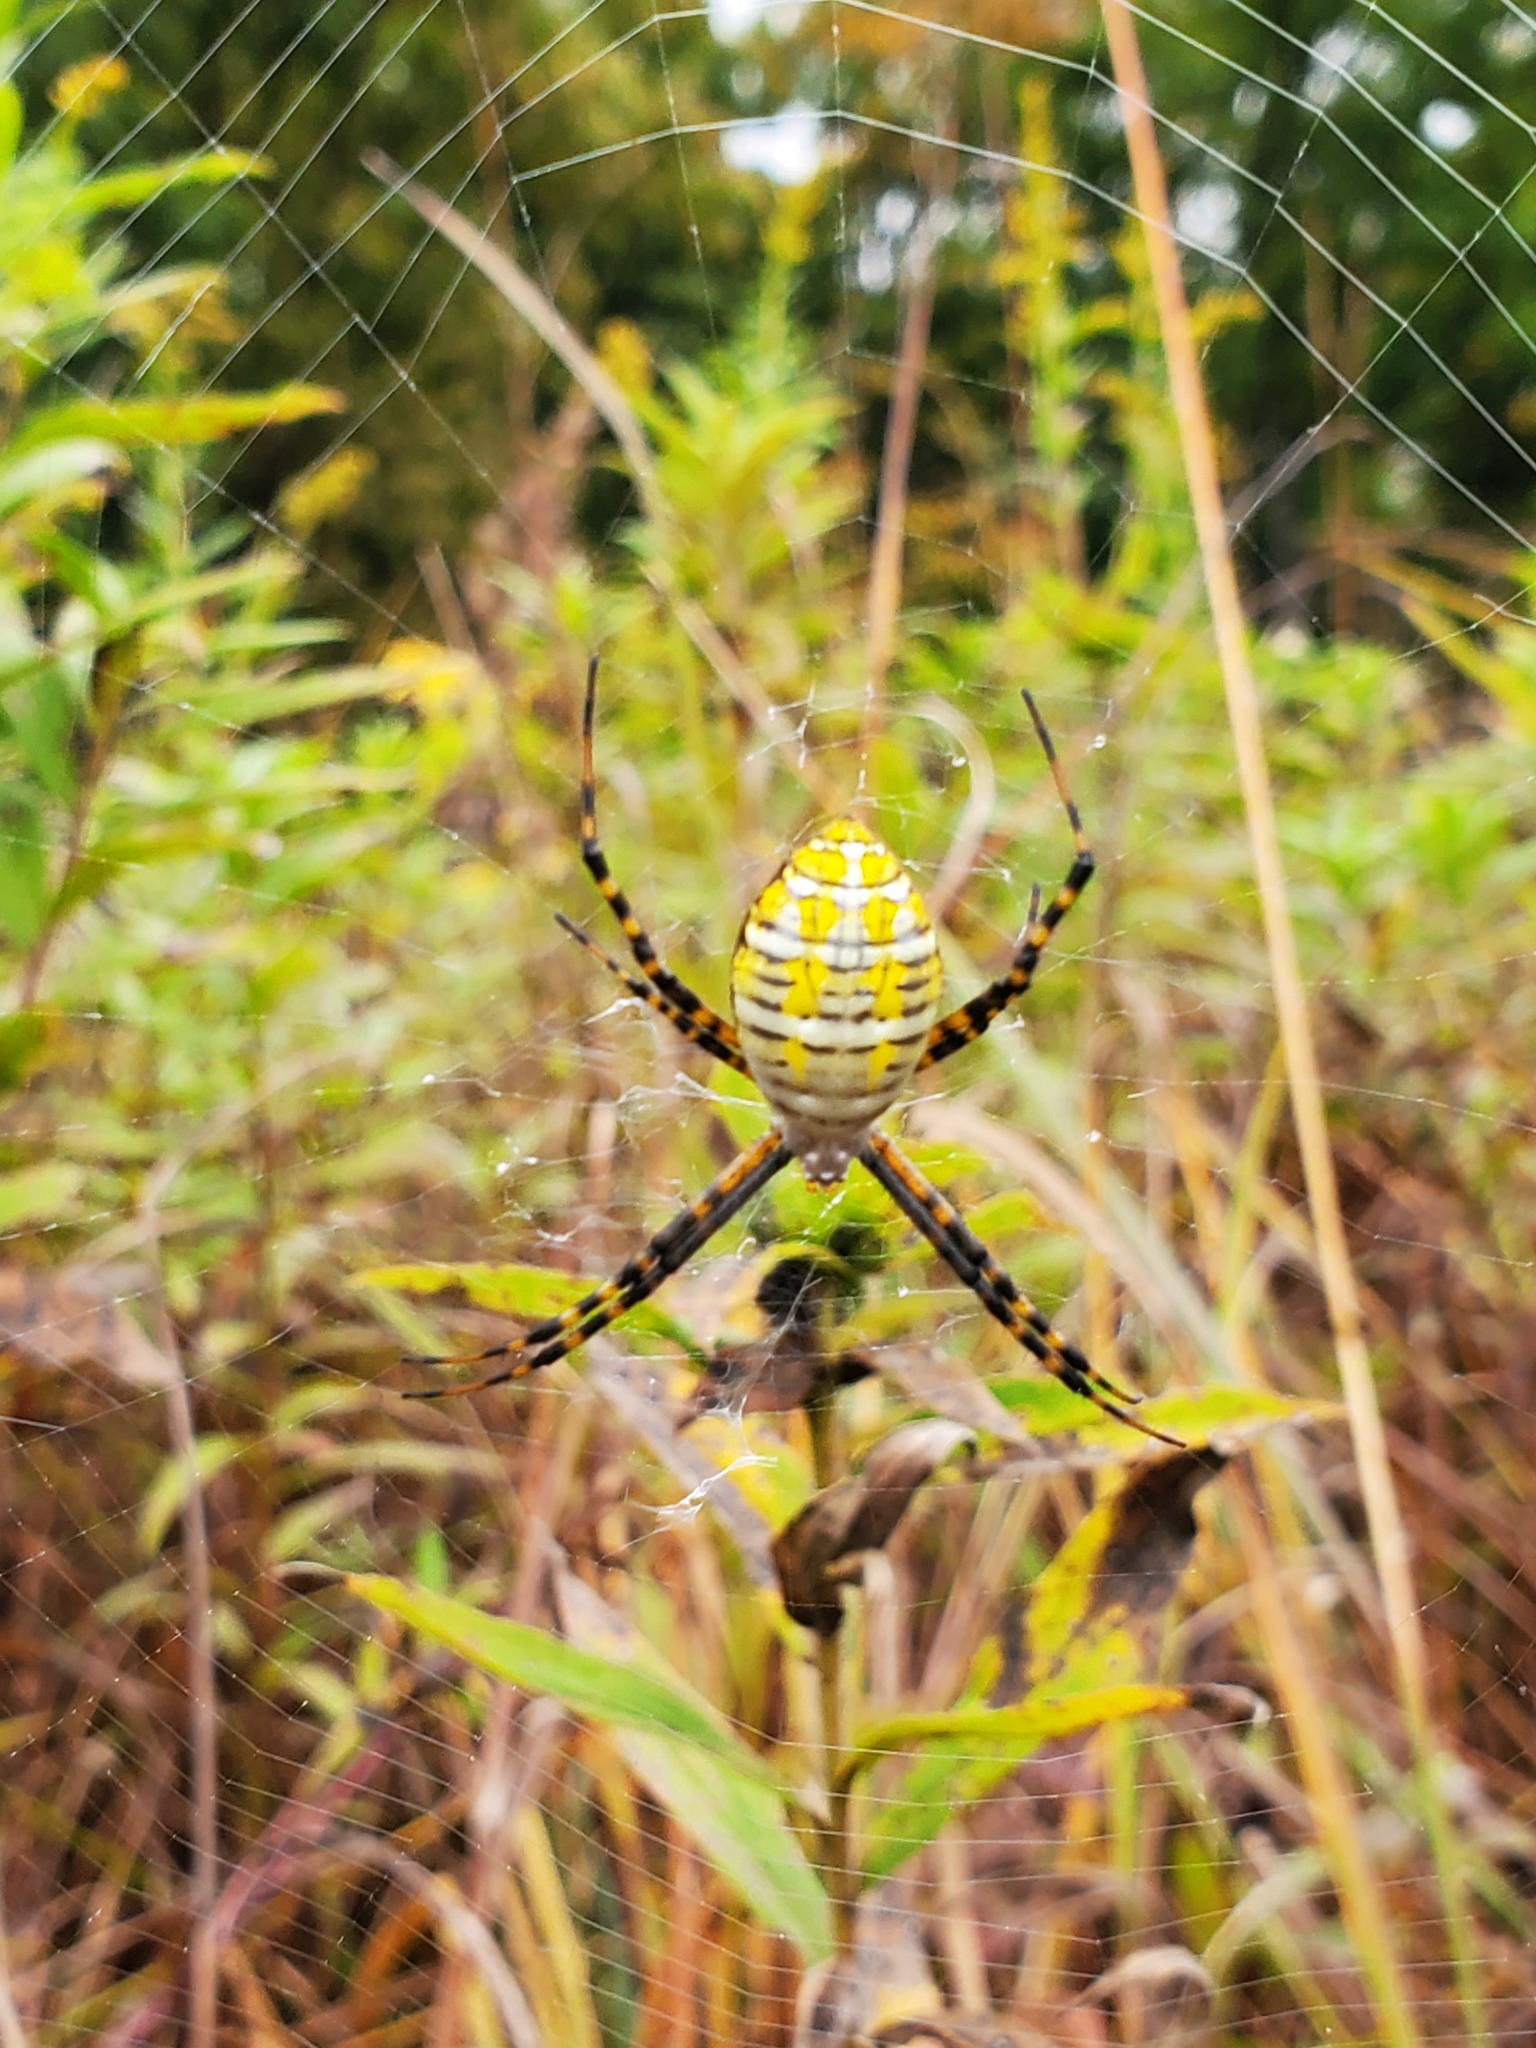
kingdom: Animalia
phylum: Arthropoda
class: Arachnida
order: Araneae
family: Araneidae
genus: Argiope
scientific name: Argiope trifasciata
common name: Banded garden spider
